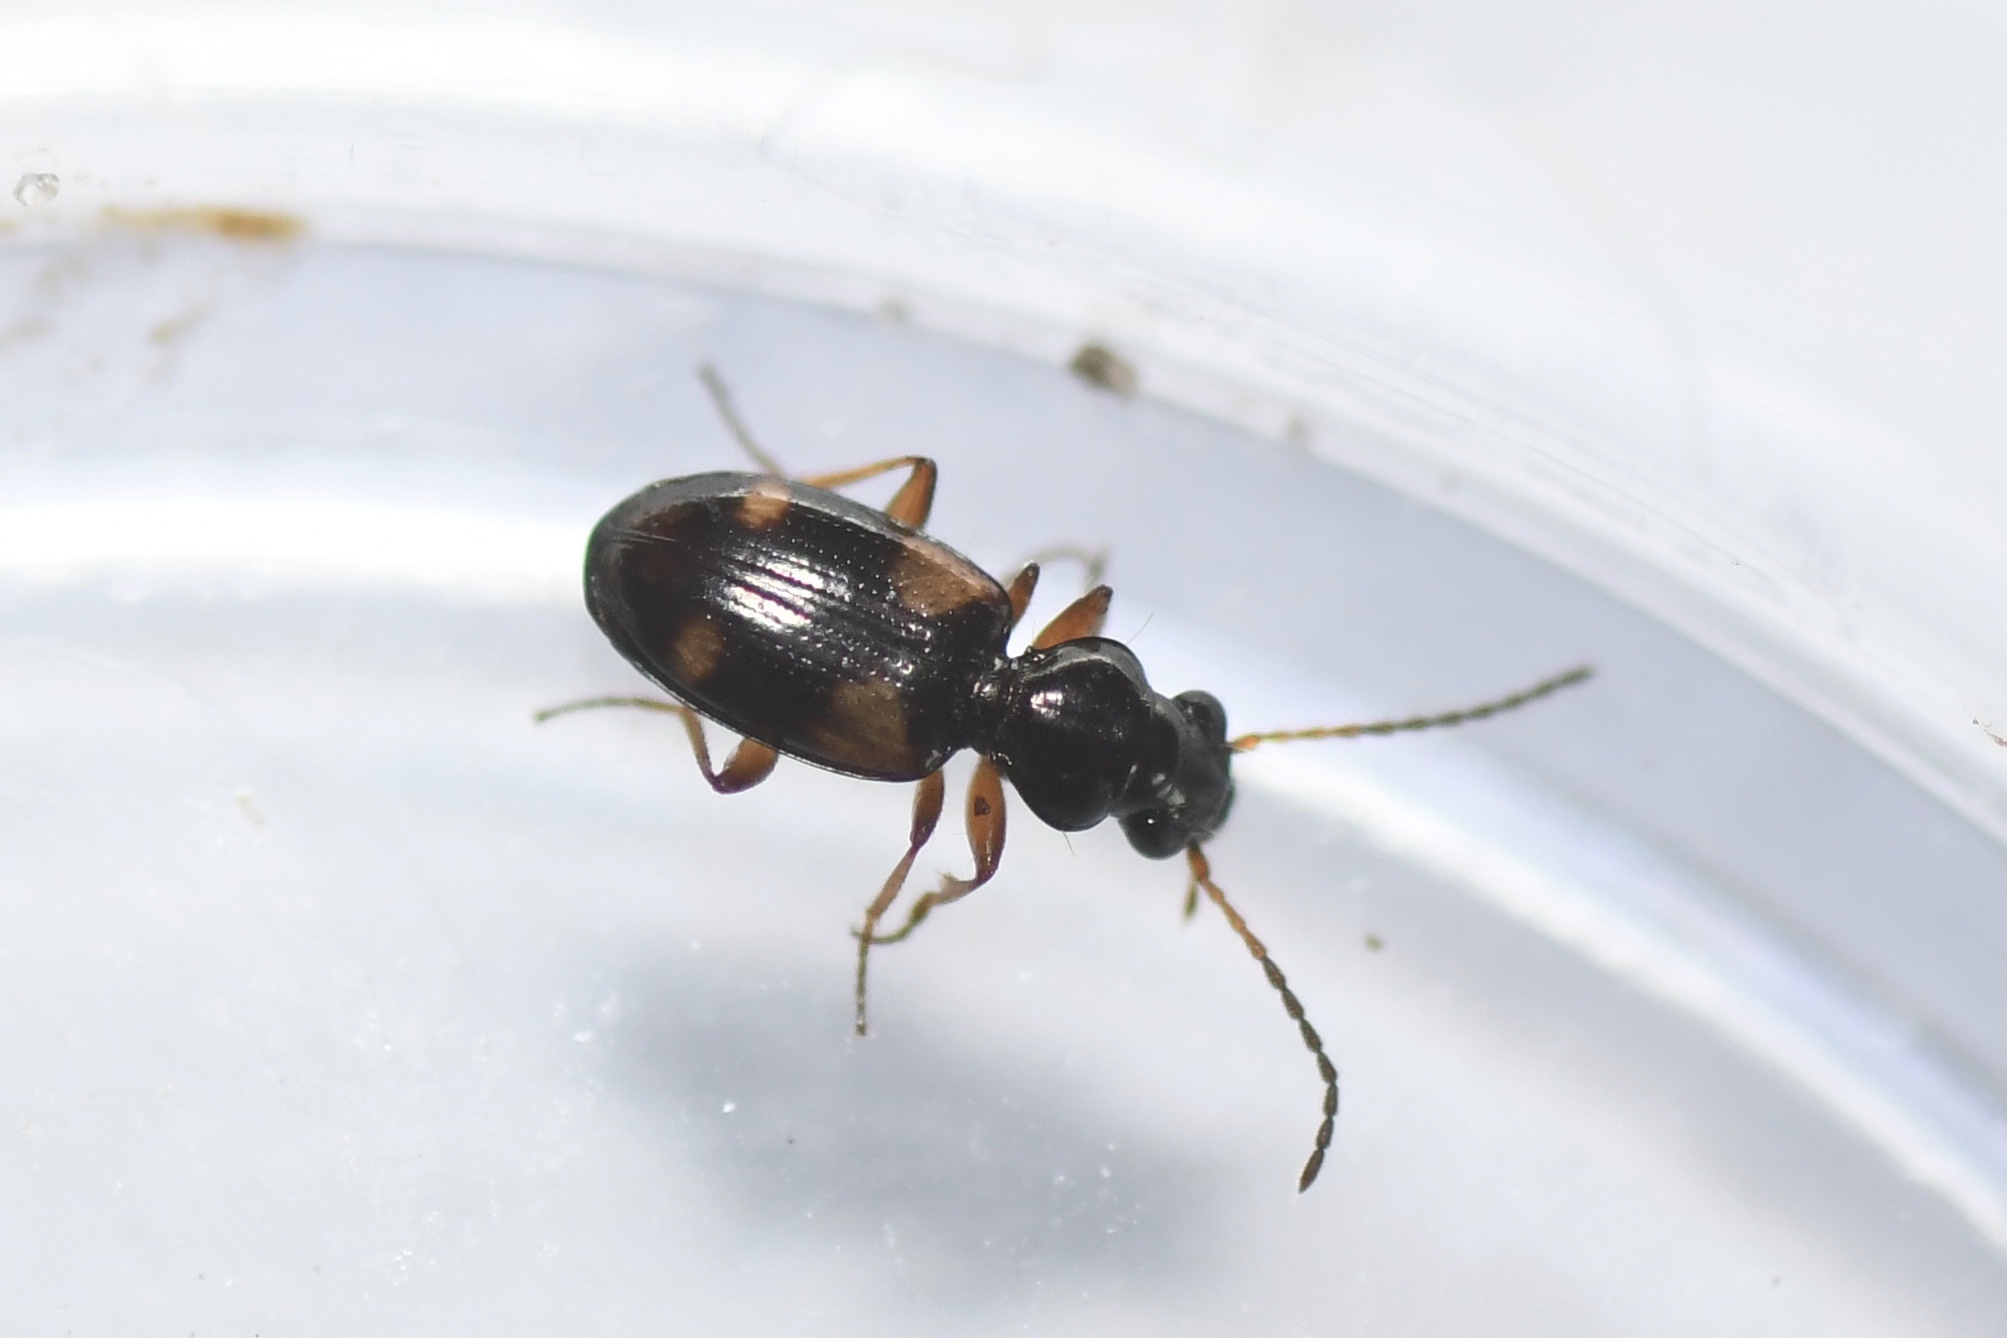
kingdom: Animalia
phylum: Arthropoda
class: Insecta
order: Coleoptera
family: Carabidae
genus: Bembidion
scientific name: Bembidion quadrimaculatum
